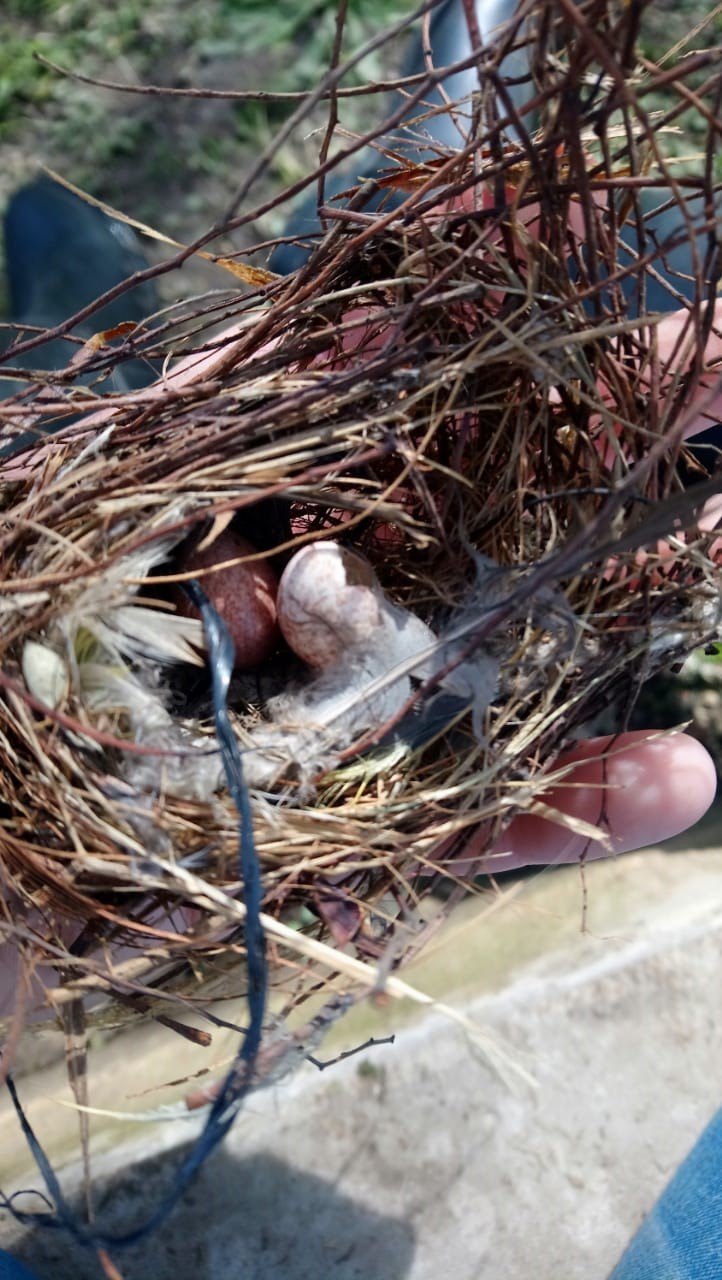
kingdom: Animalia
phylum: Chordata
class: Aves
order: Passeriformes
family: Troglodytidae
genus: Troglodytes
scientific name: Troglodytes aedon
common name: House wren
